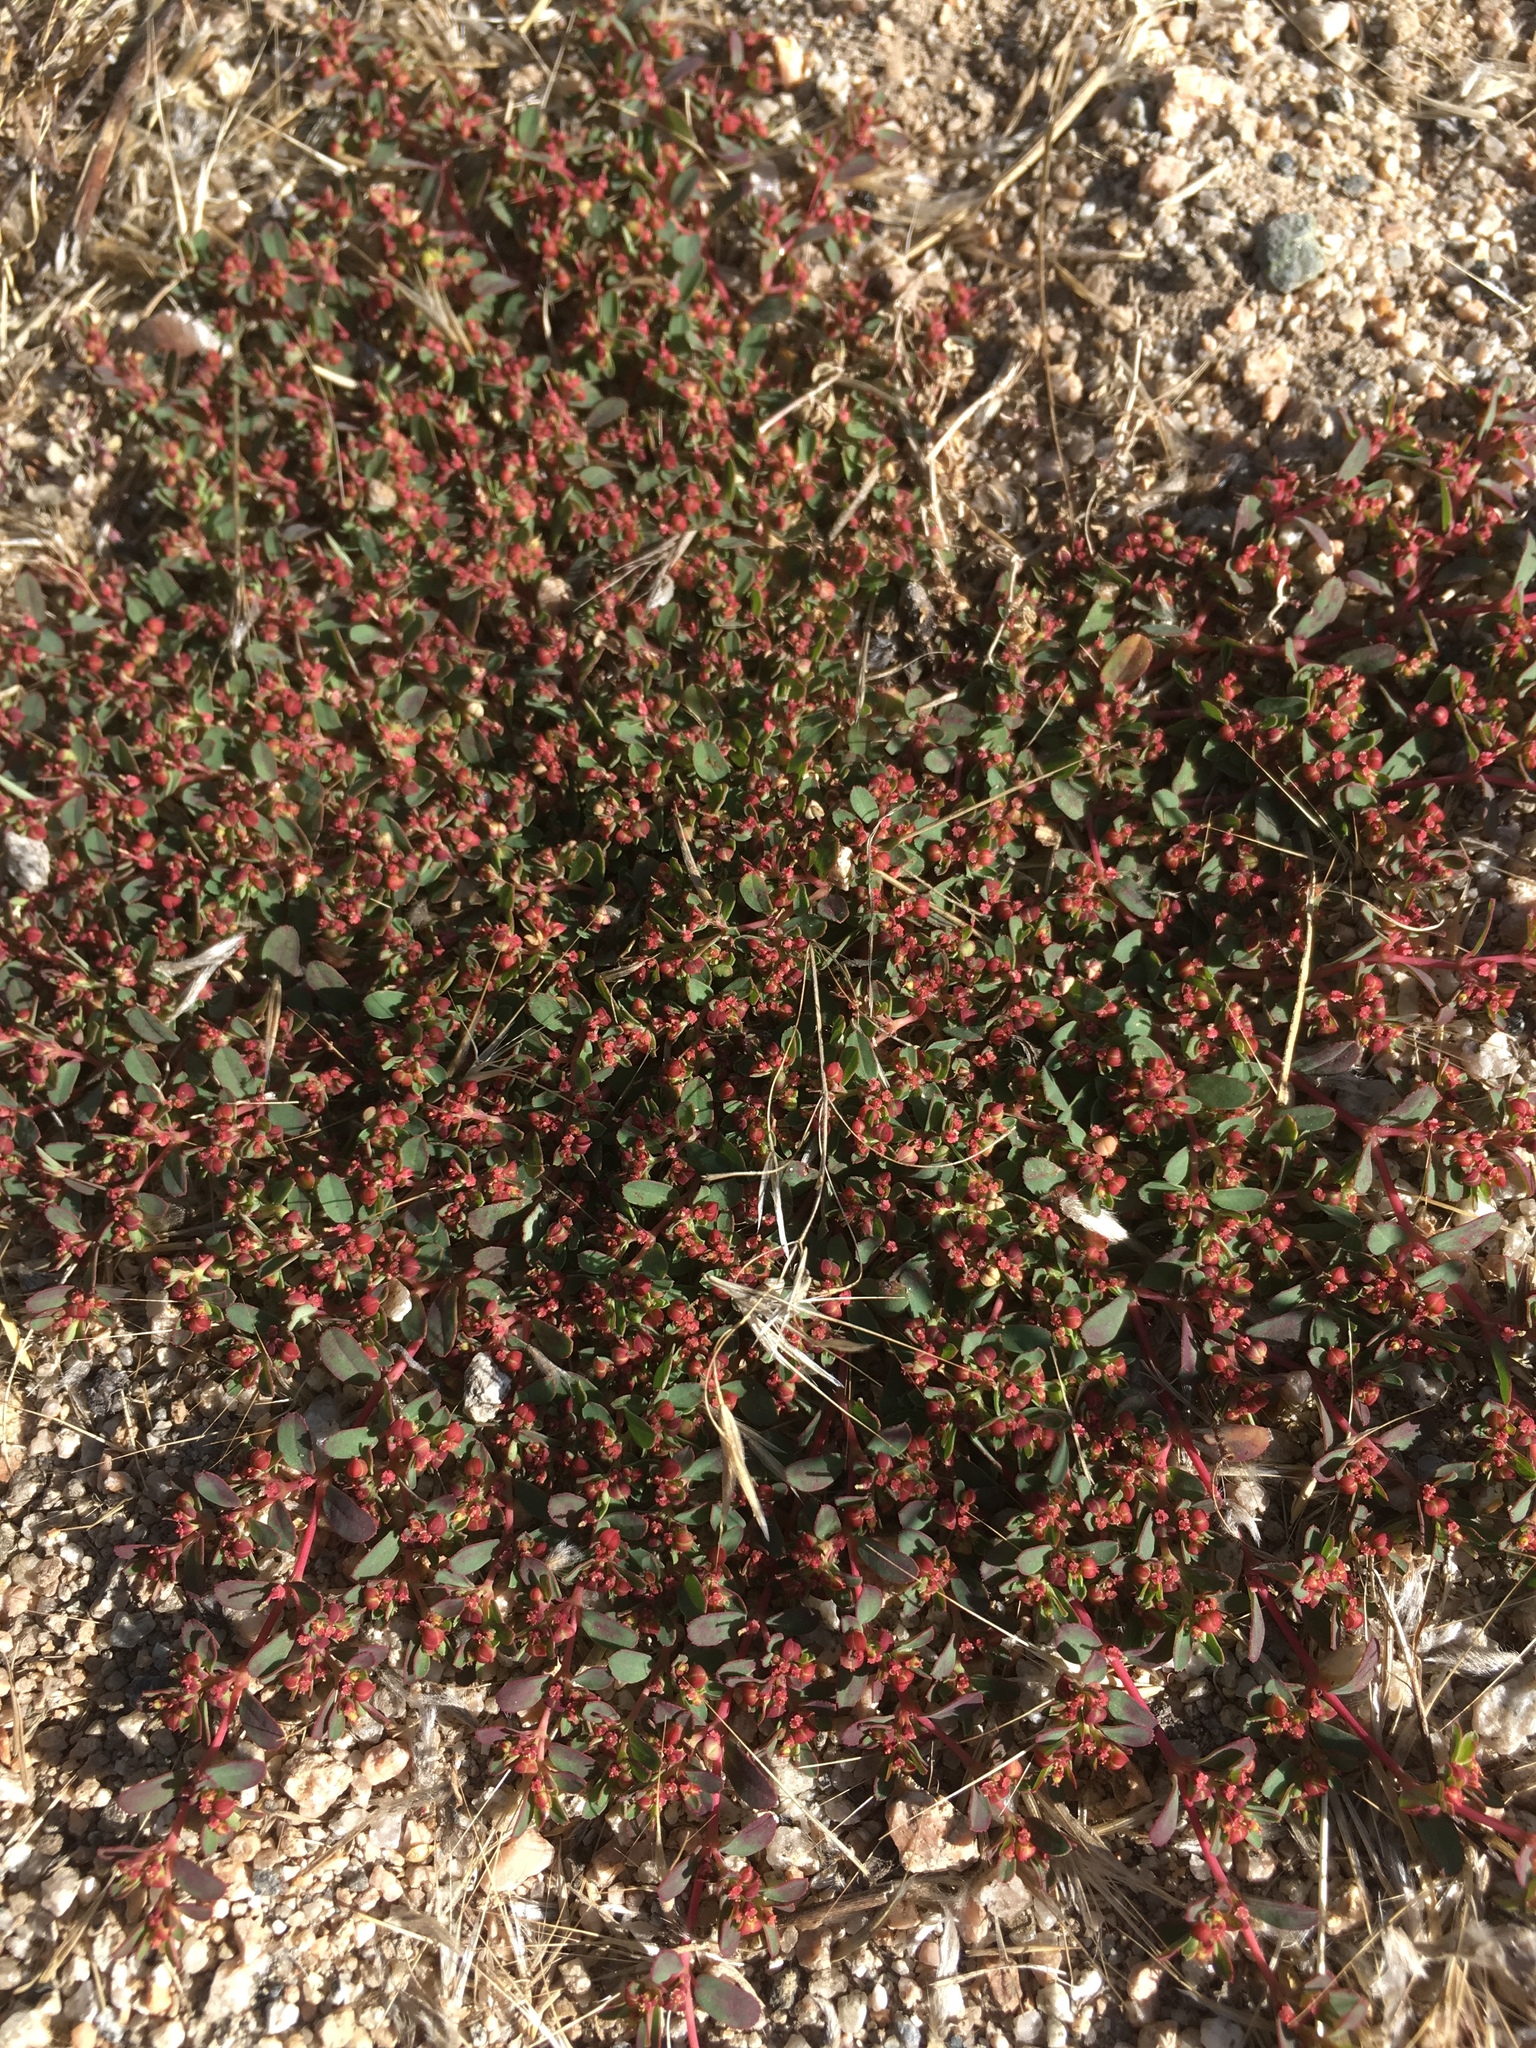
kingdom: Plantae
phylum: Tracheophyta
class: Magnoliopsida
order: Malpighiales
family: Euphorbiaceae
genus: Euphorbia
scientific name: Euphorbia serpillifolia
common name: Thyme-leaf spurge
